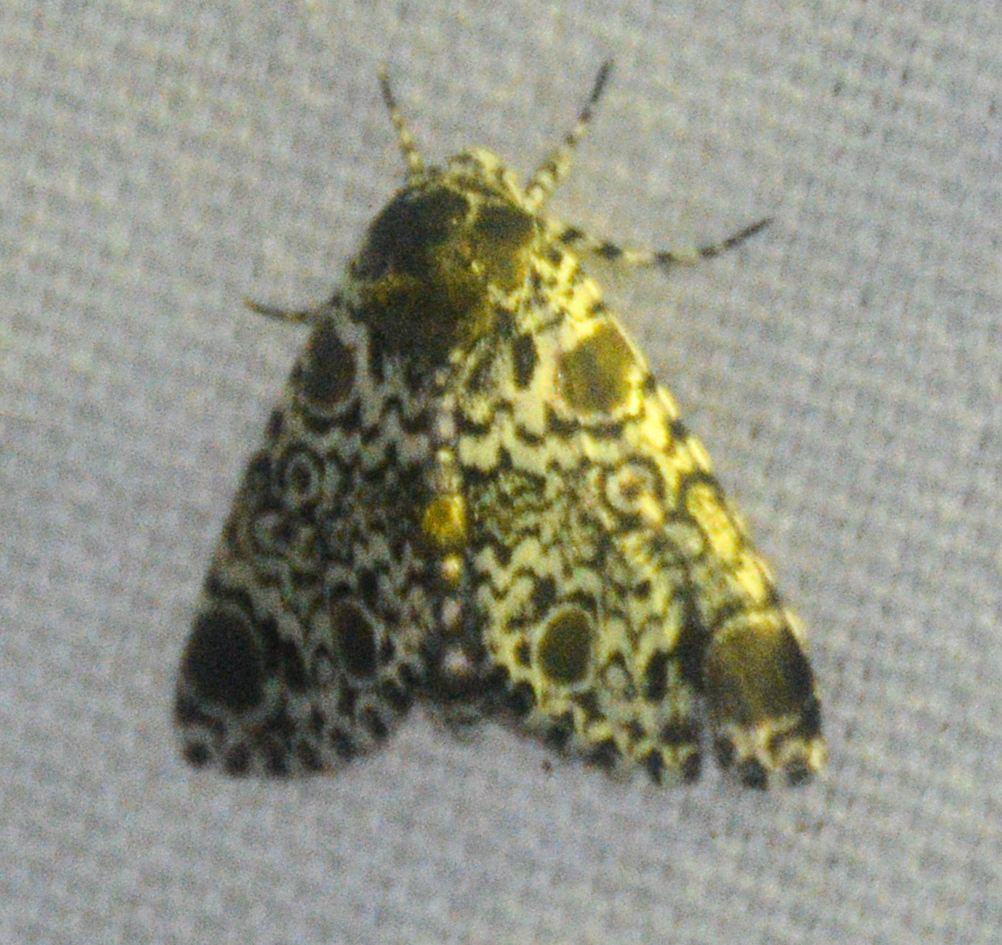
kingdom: Animalia
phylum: Arthropoda
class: Insecta
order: Lepidoptera
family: Noctuidae
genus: Harrisimemna
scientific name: Harrisimemna trisignata
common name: Harris threespot
